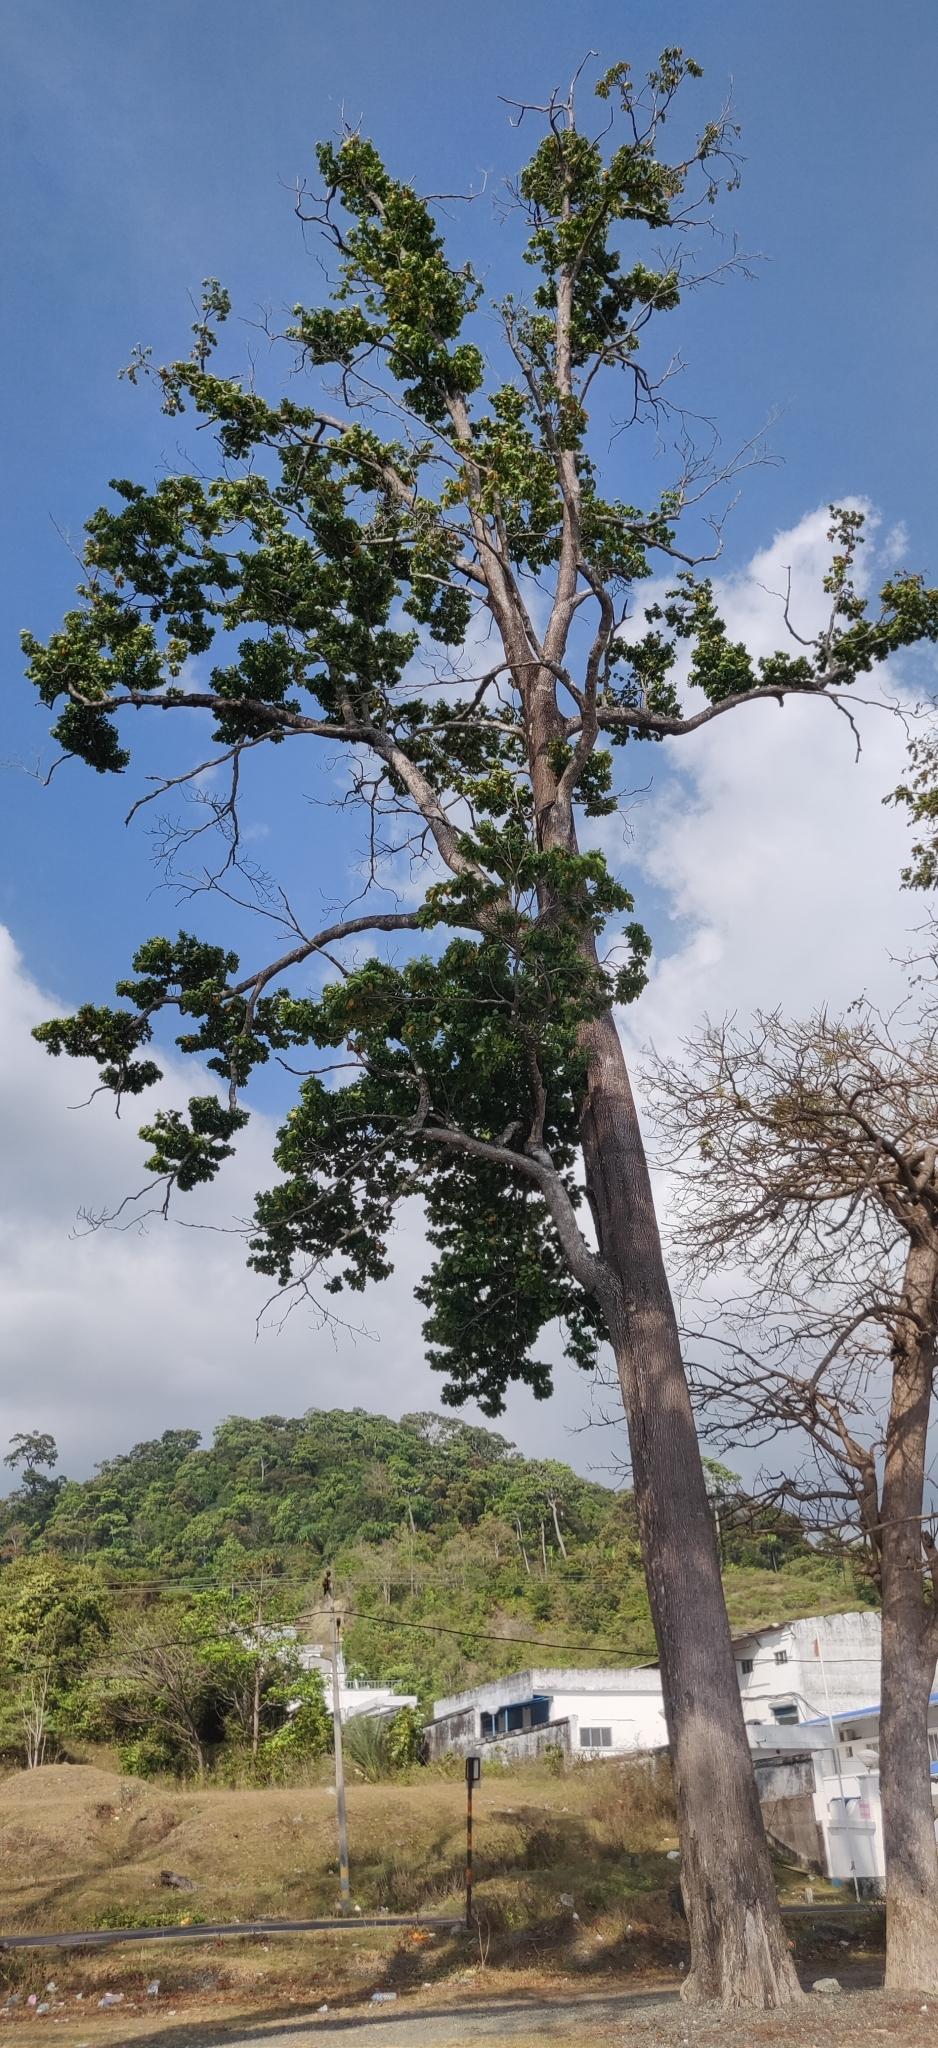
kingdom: Plantae
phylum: Tracheophyta
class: Magnoliopsida
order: Ericales
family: Sapotaceae
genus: Manilkara
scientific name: Manilkara littoralis
